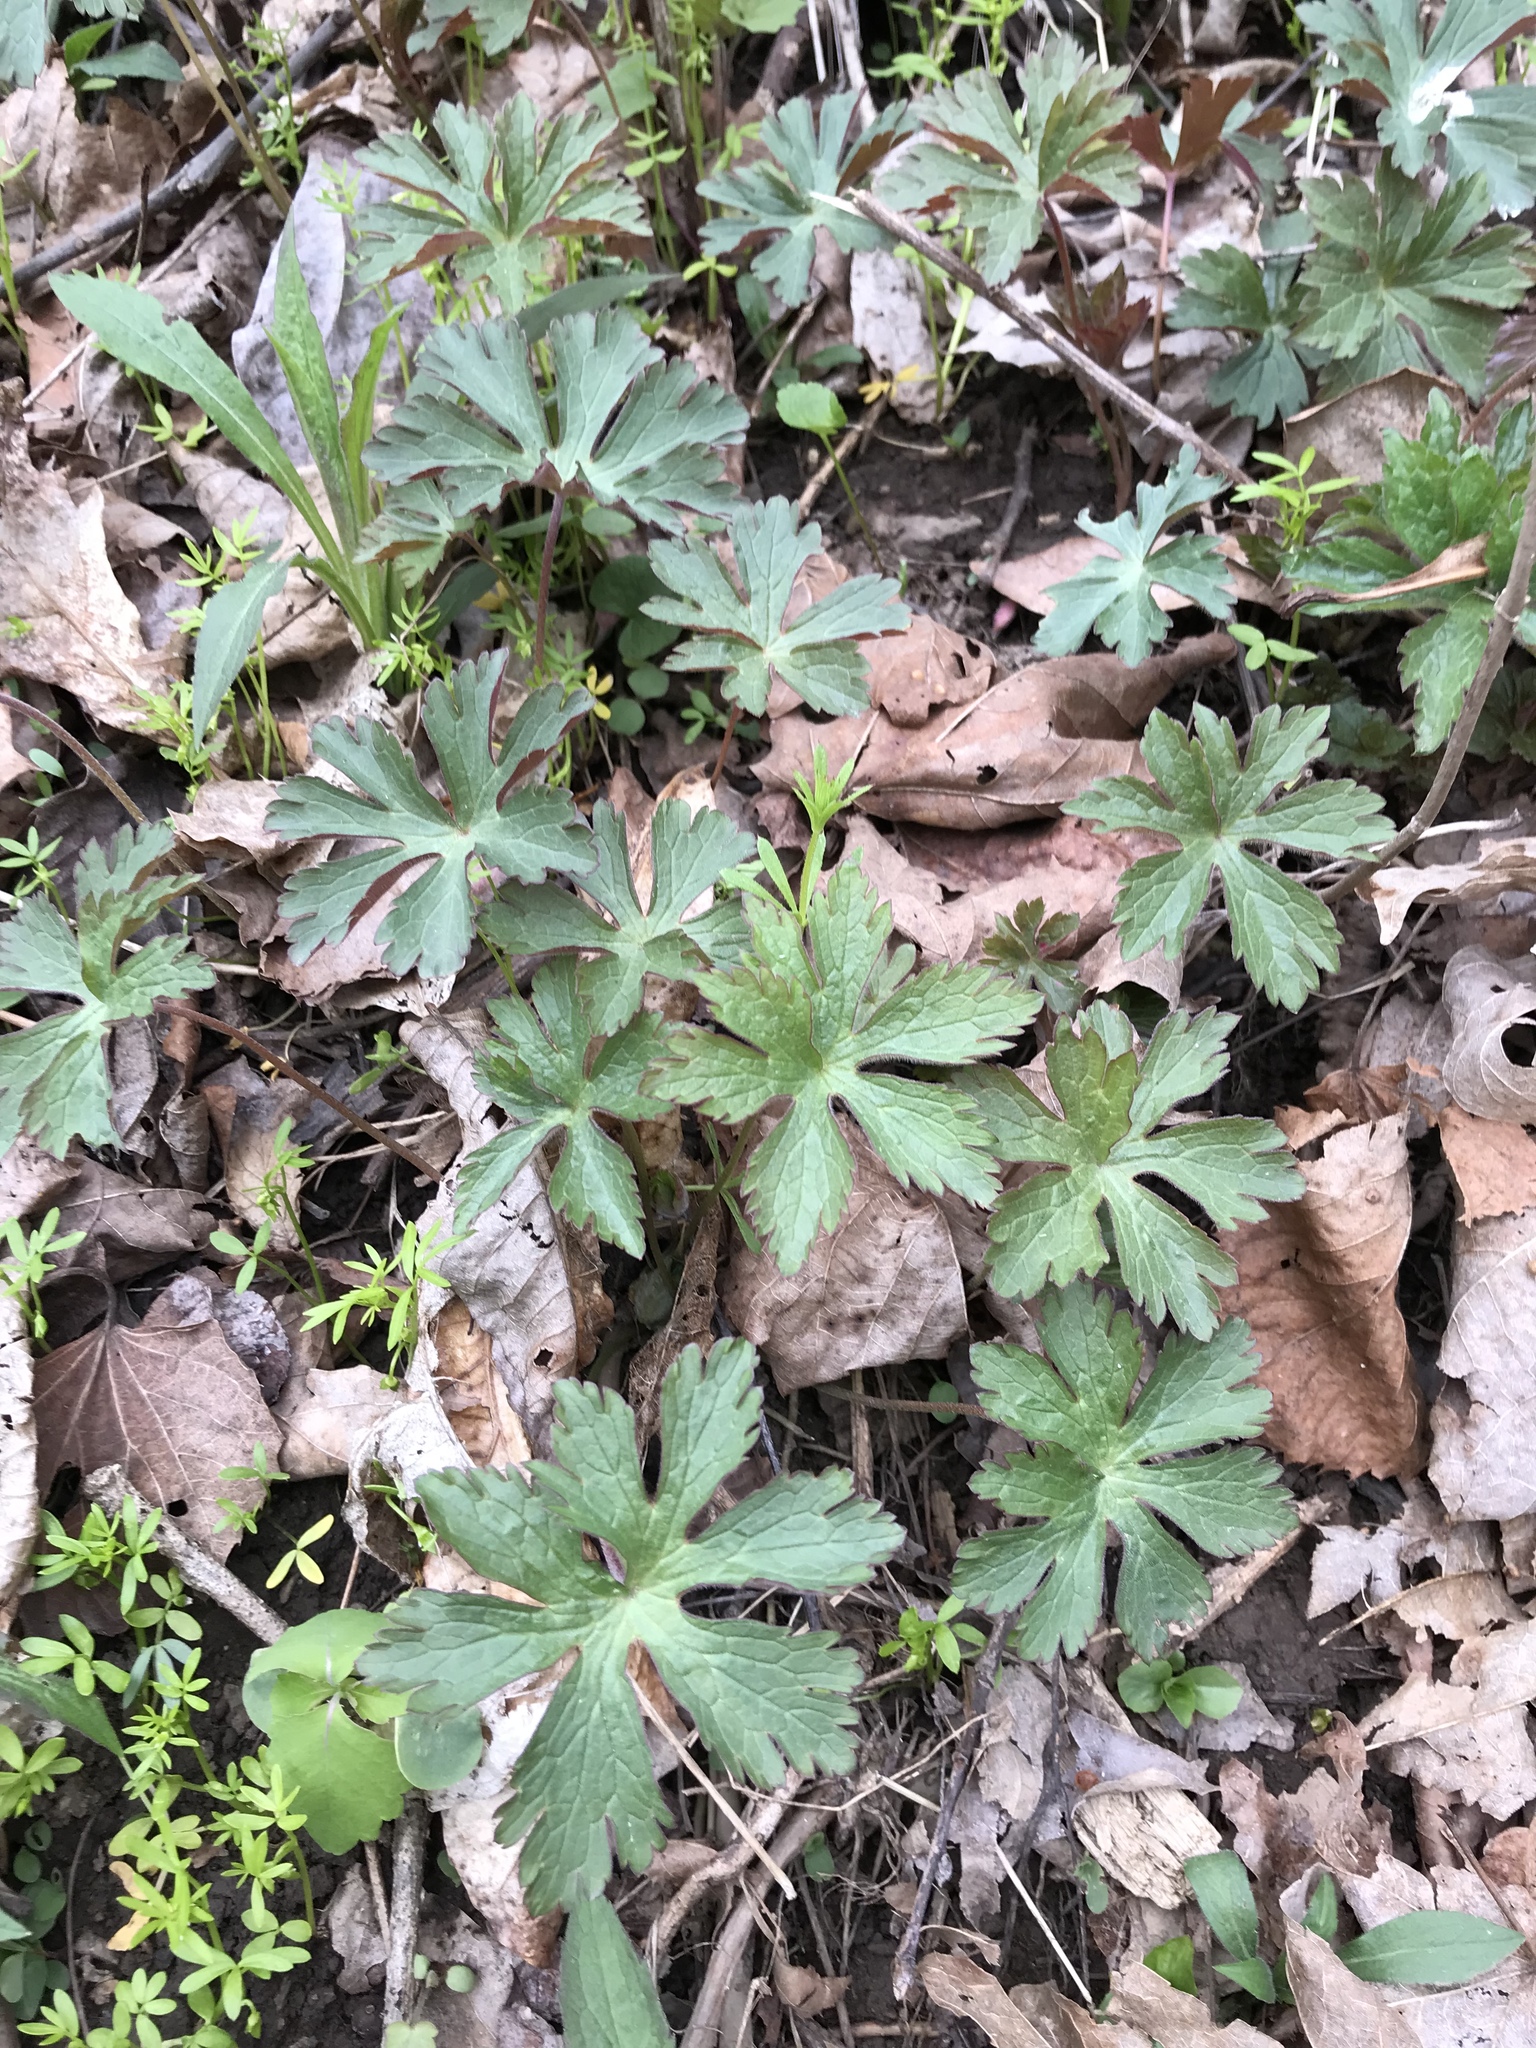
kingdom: Plantae
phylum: Tracheophyta
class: Magnoliopsida
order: Geraniales
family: Geraniaceae
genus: Geranium
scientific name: Geranium maculatum
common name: Spotted geranium
